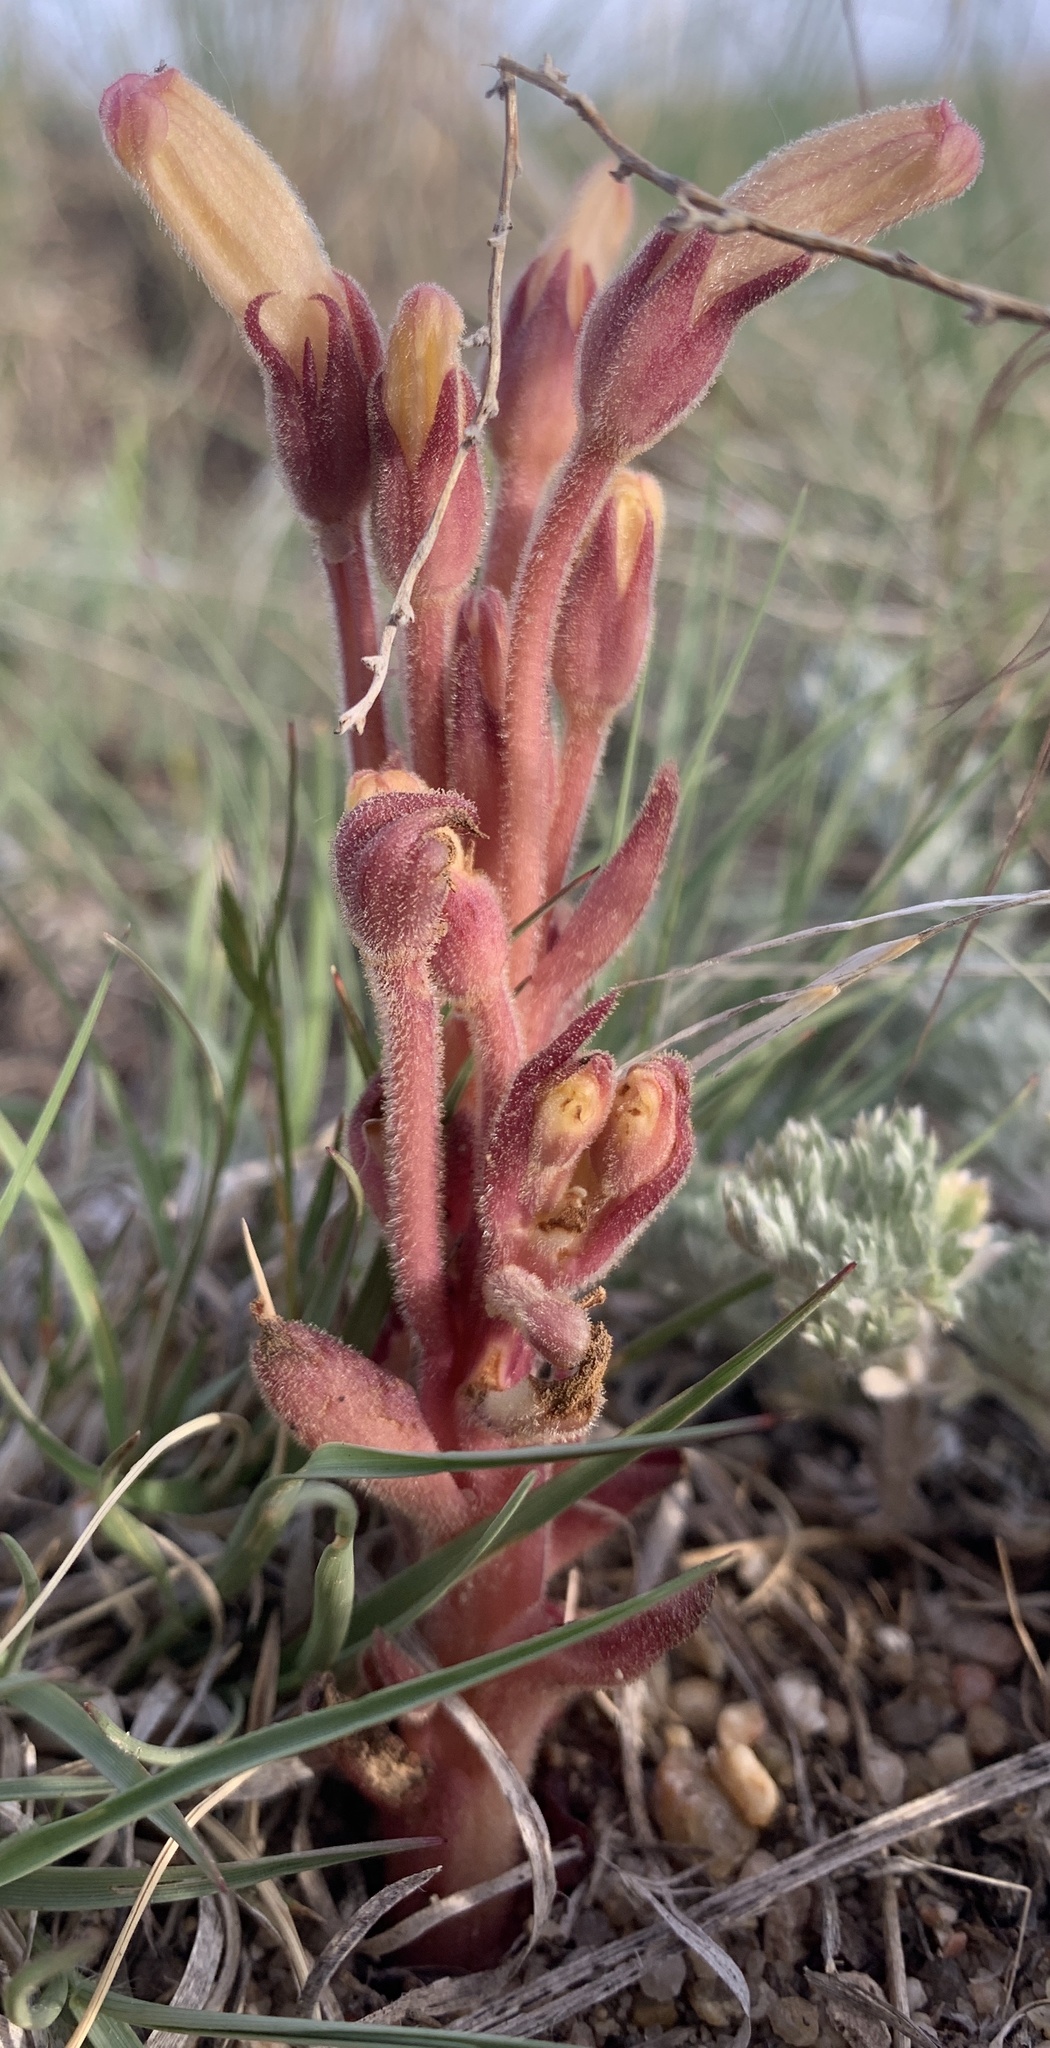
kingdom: Plantae
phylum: Tracheophyta
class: Magnoliopsida
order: Lamiales
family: Orobanchaceae
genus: Aphyllon
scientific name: Aphyllon fasciculatum
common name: Clustered broomrape
